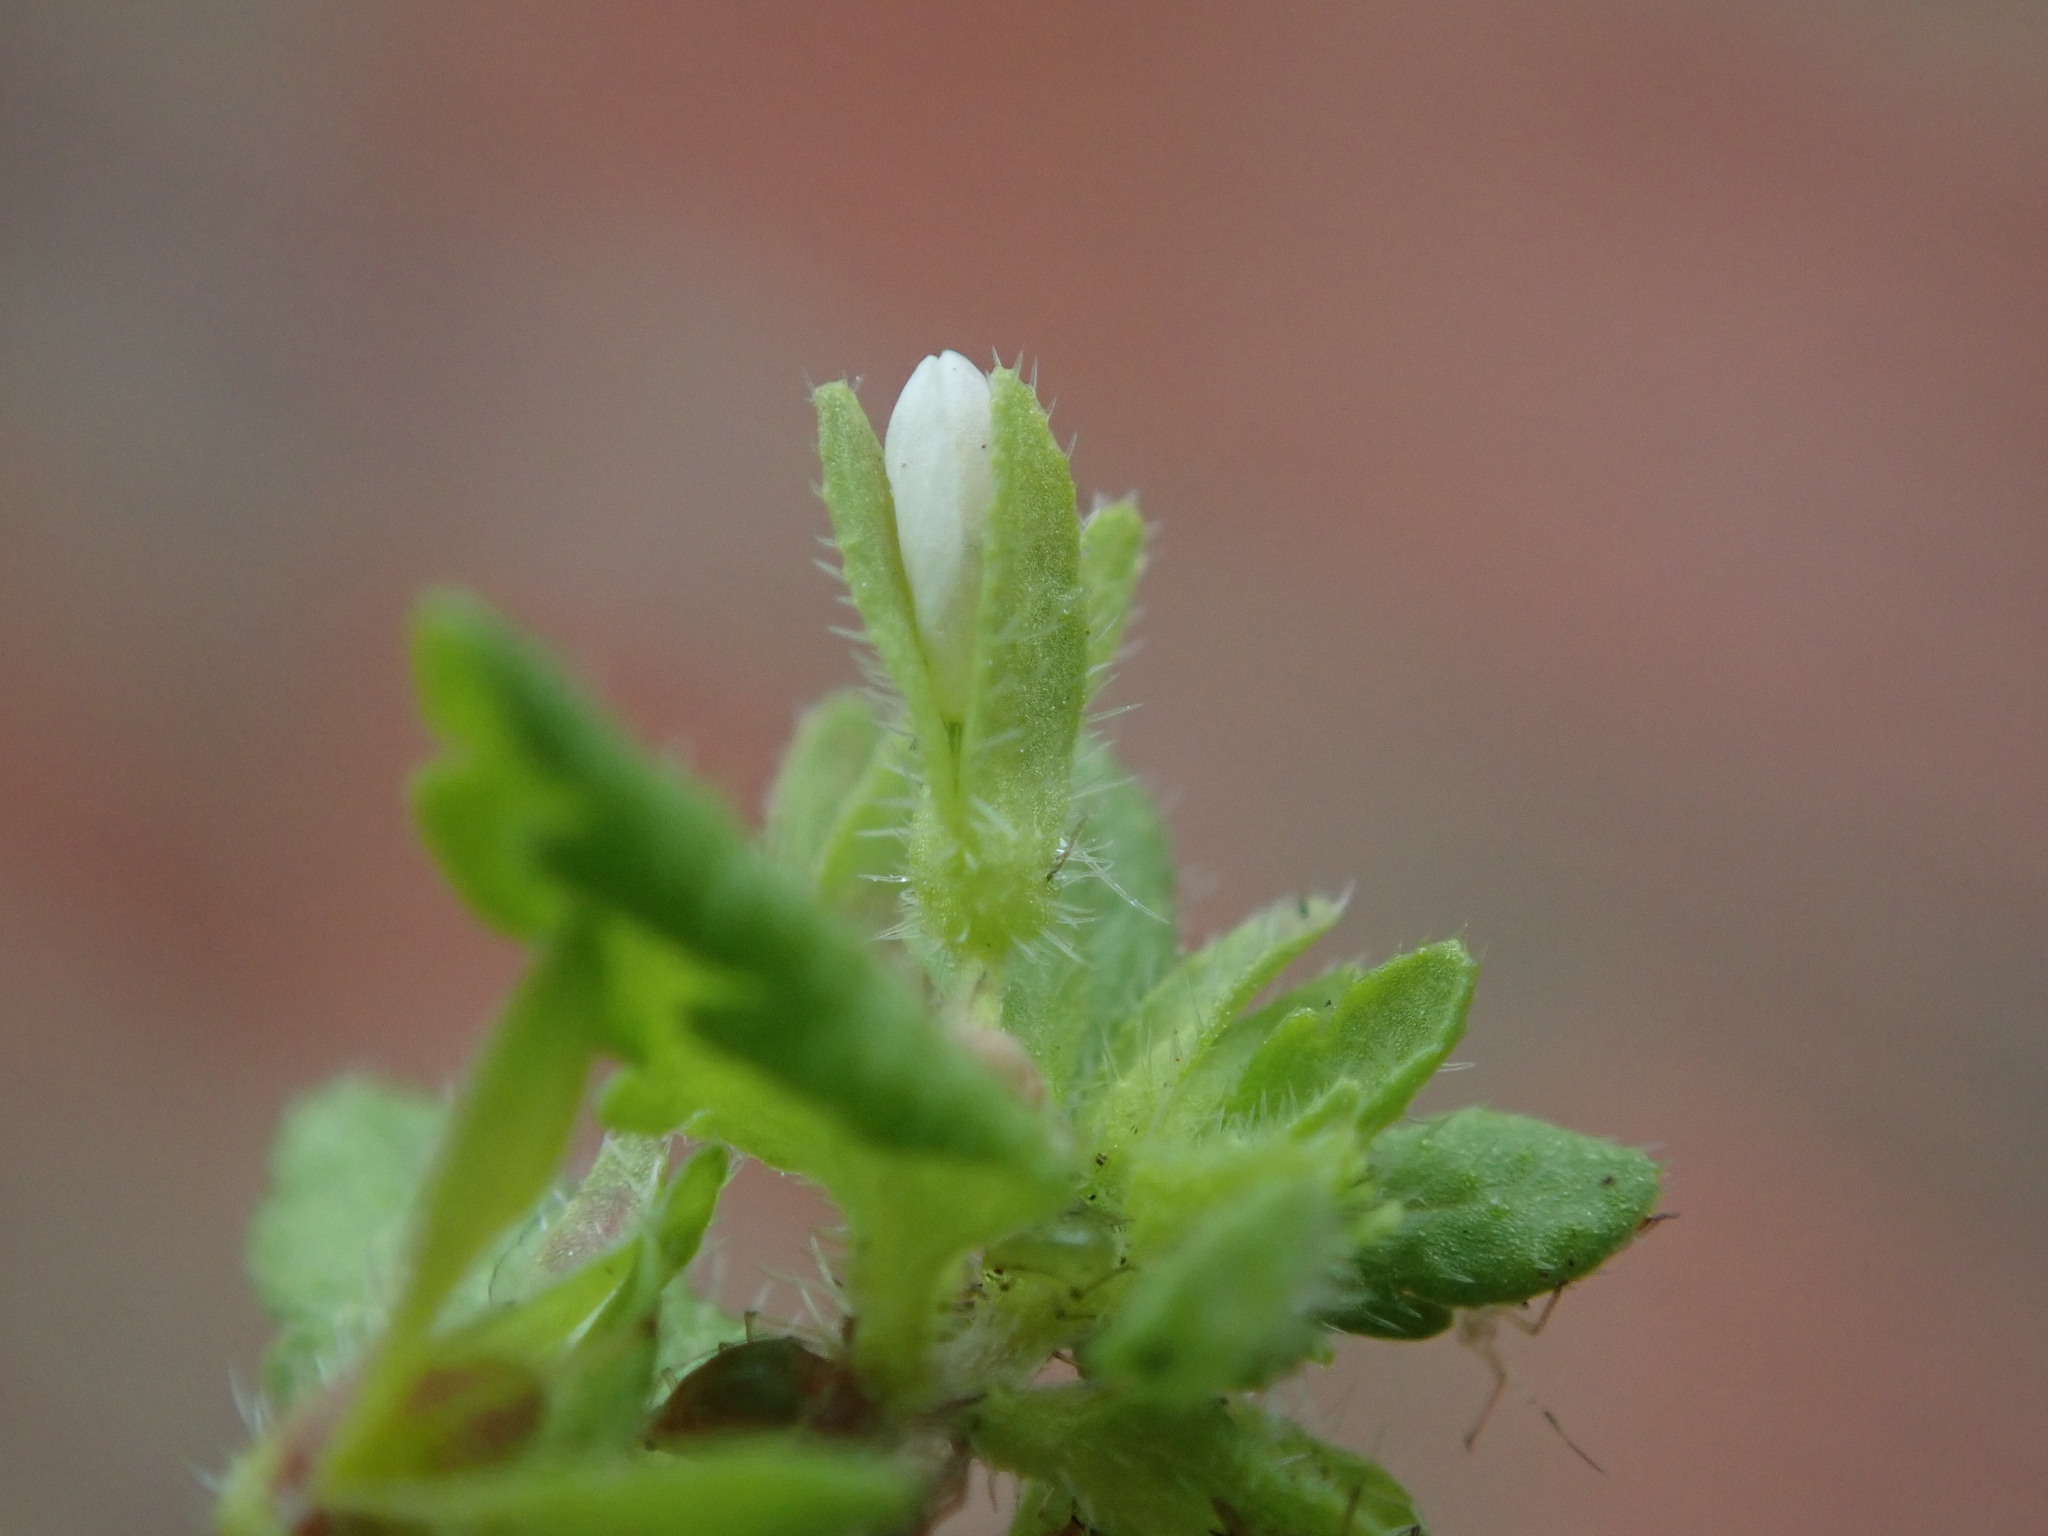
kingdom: Plantae
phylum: Tracheophyta
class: Magnoliopsida
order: Lamiales
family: Plantaginaceae
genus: Veronica
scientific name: Veronica agrestis
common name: Green field-speedwell
